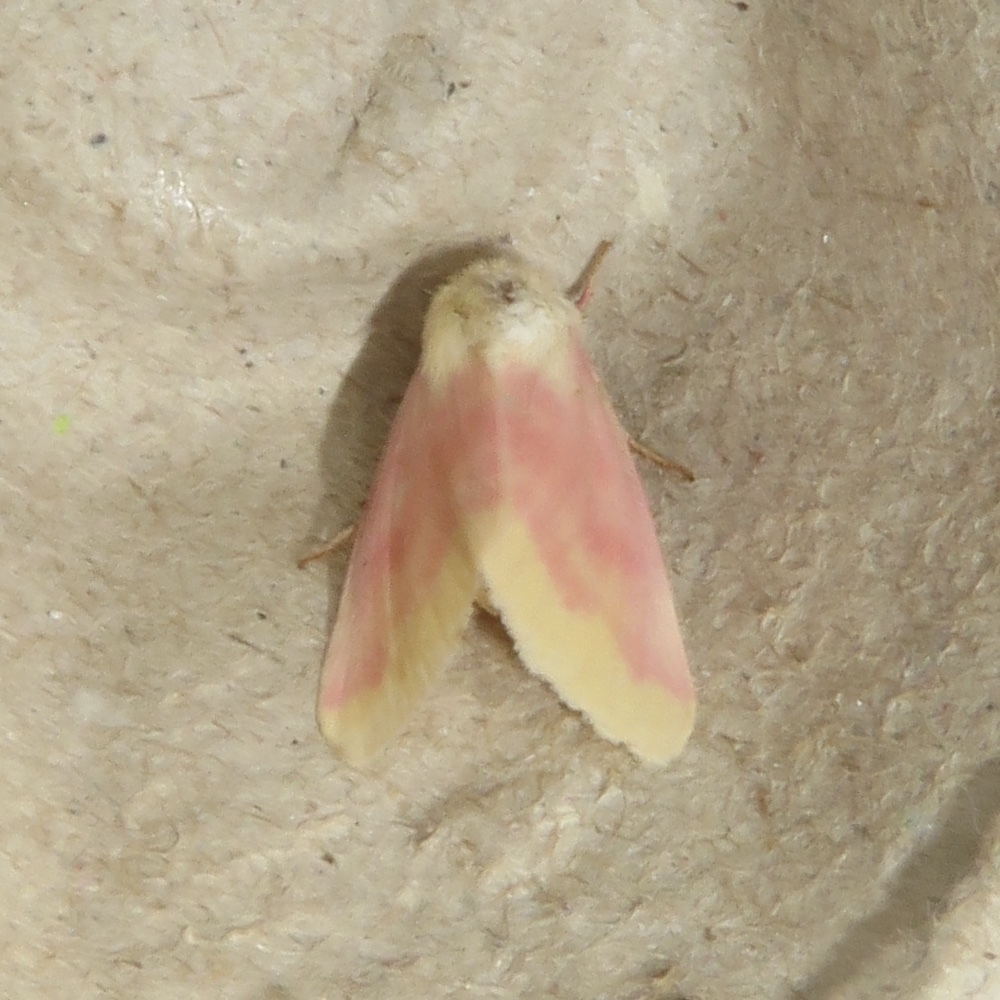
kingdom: Animalia
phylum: Arthropoda
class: Insecta
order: Lepidoptera
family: Noctuidae
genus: Schinia
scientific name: Schinia florida
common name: Primrose moth
